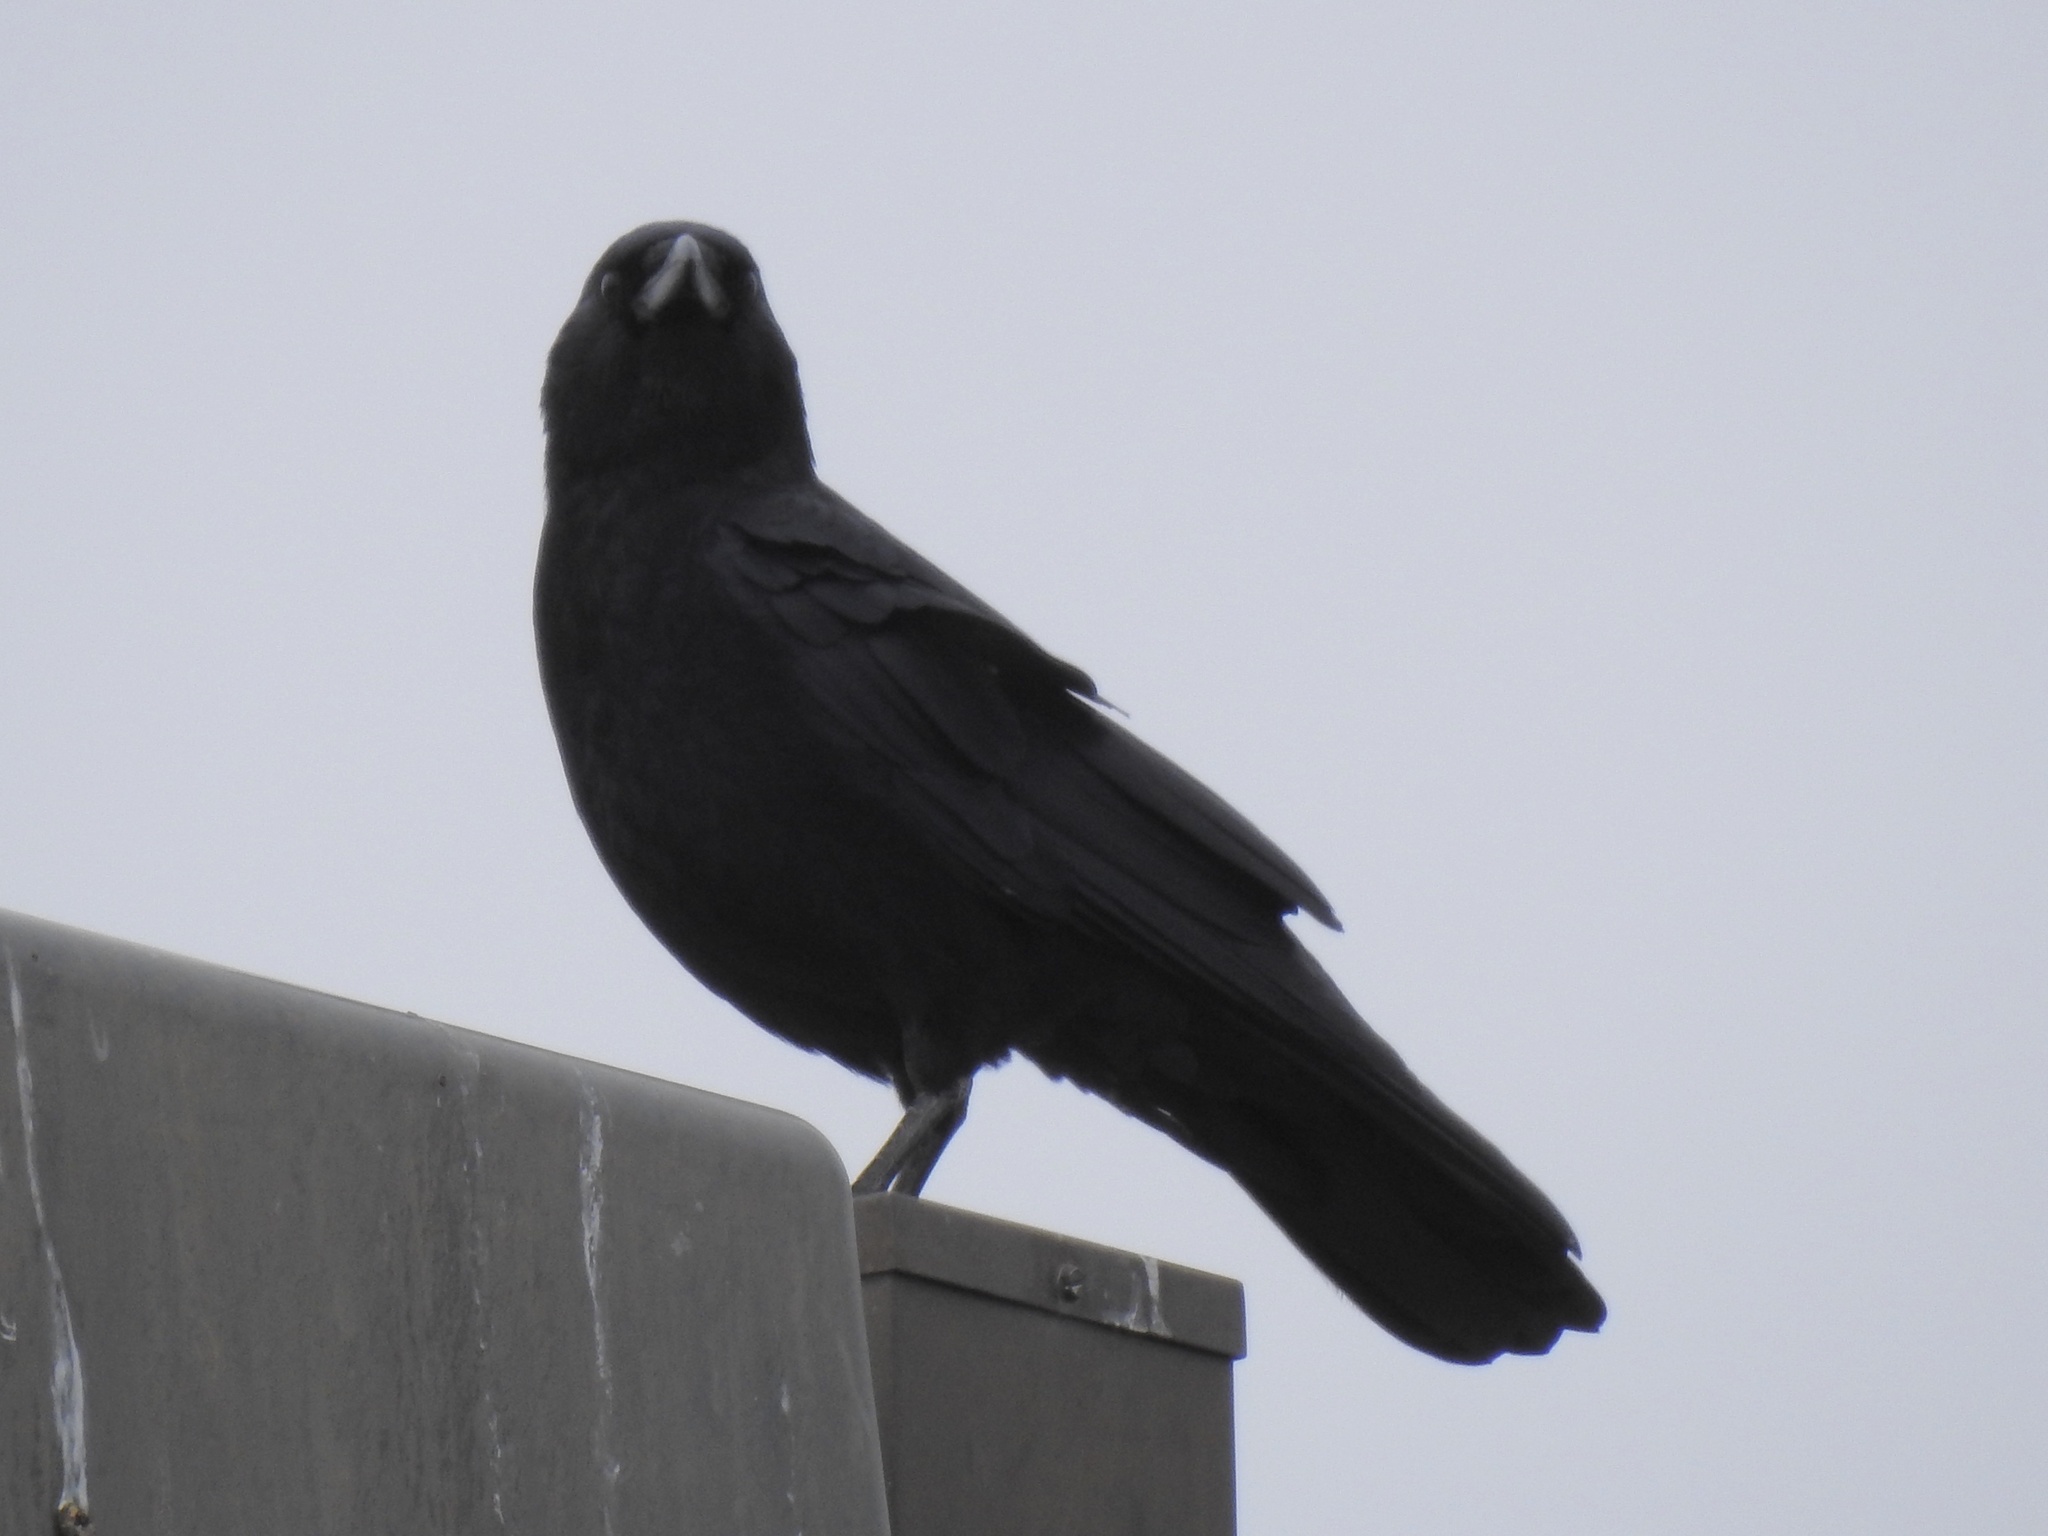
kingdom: Animalia
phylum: Chordata
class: Aves
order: Passeriformes
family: Corvidae
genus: Corvus
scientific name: Corvus brachyrhynchos
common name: American crow
